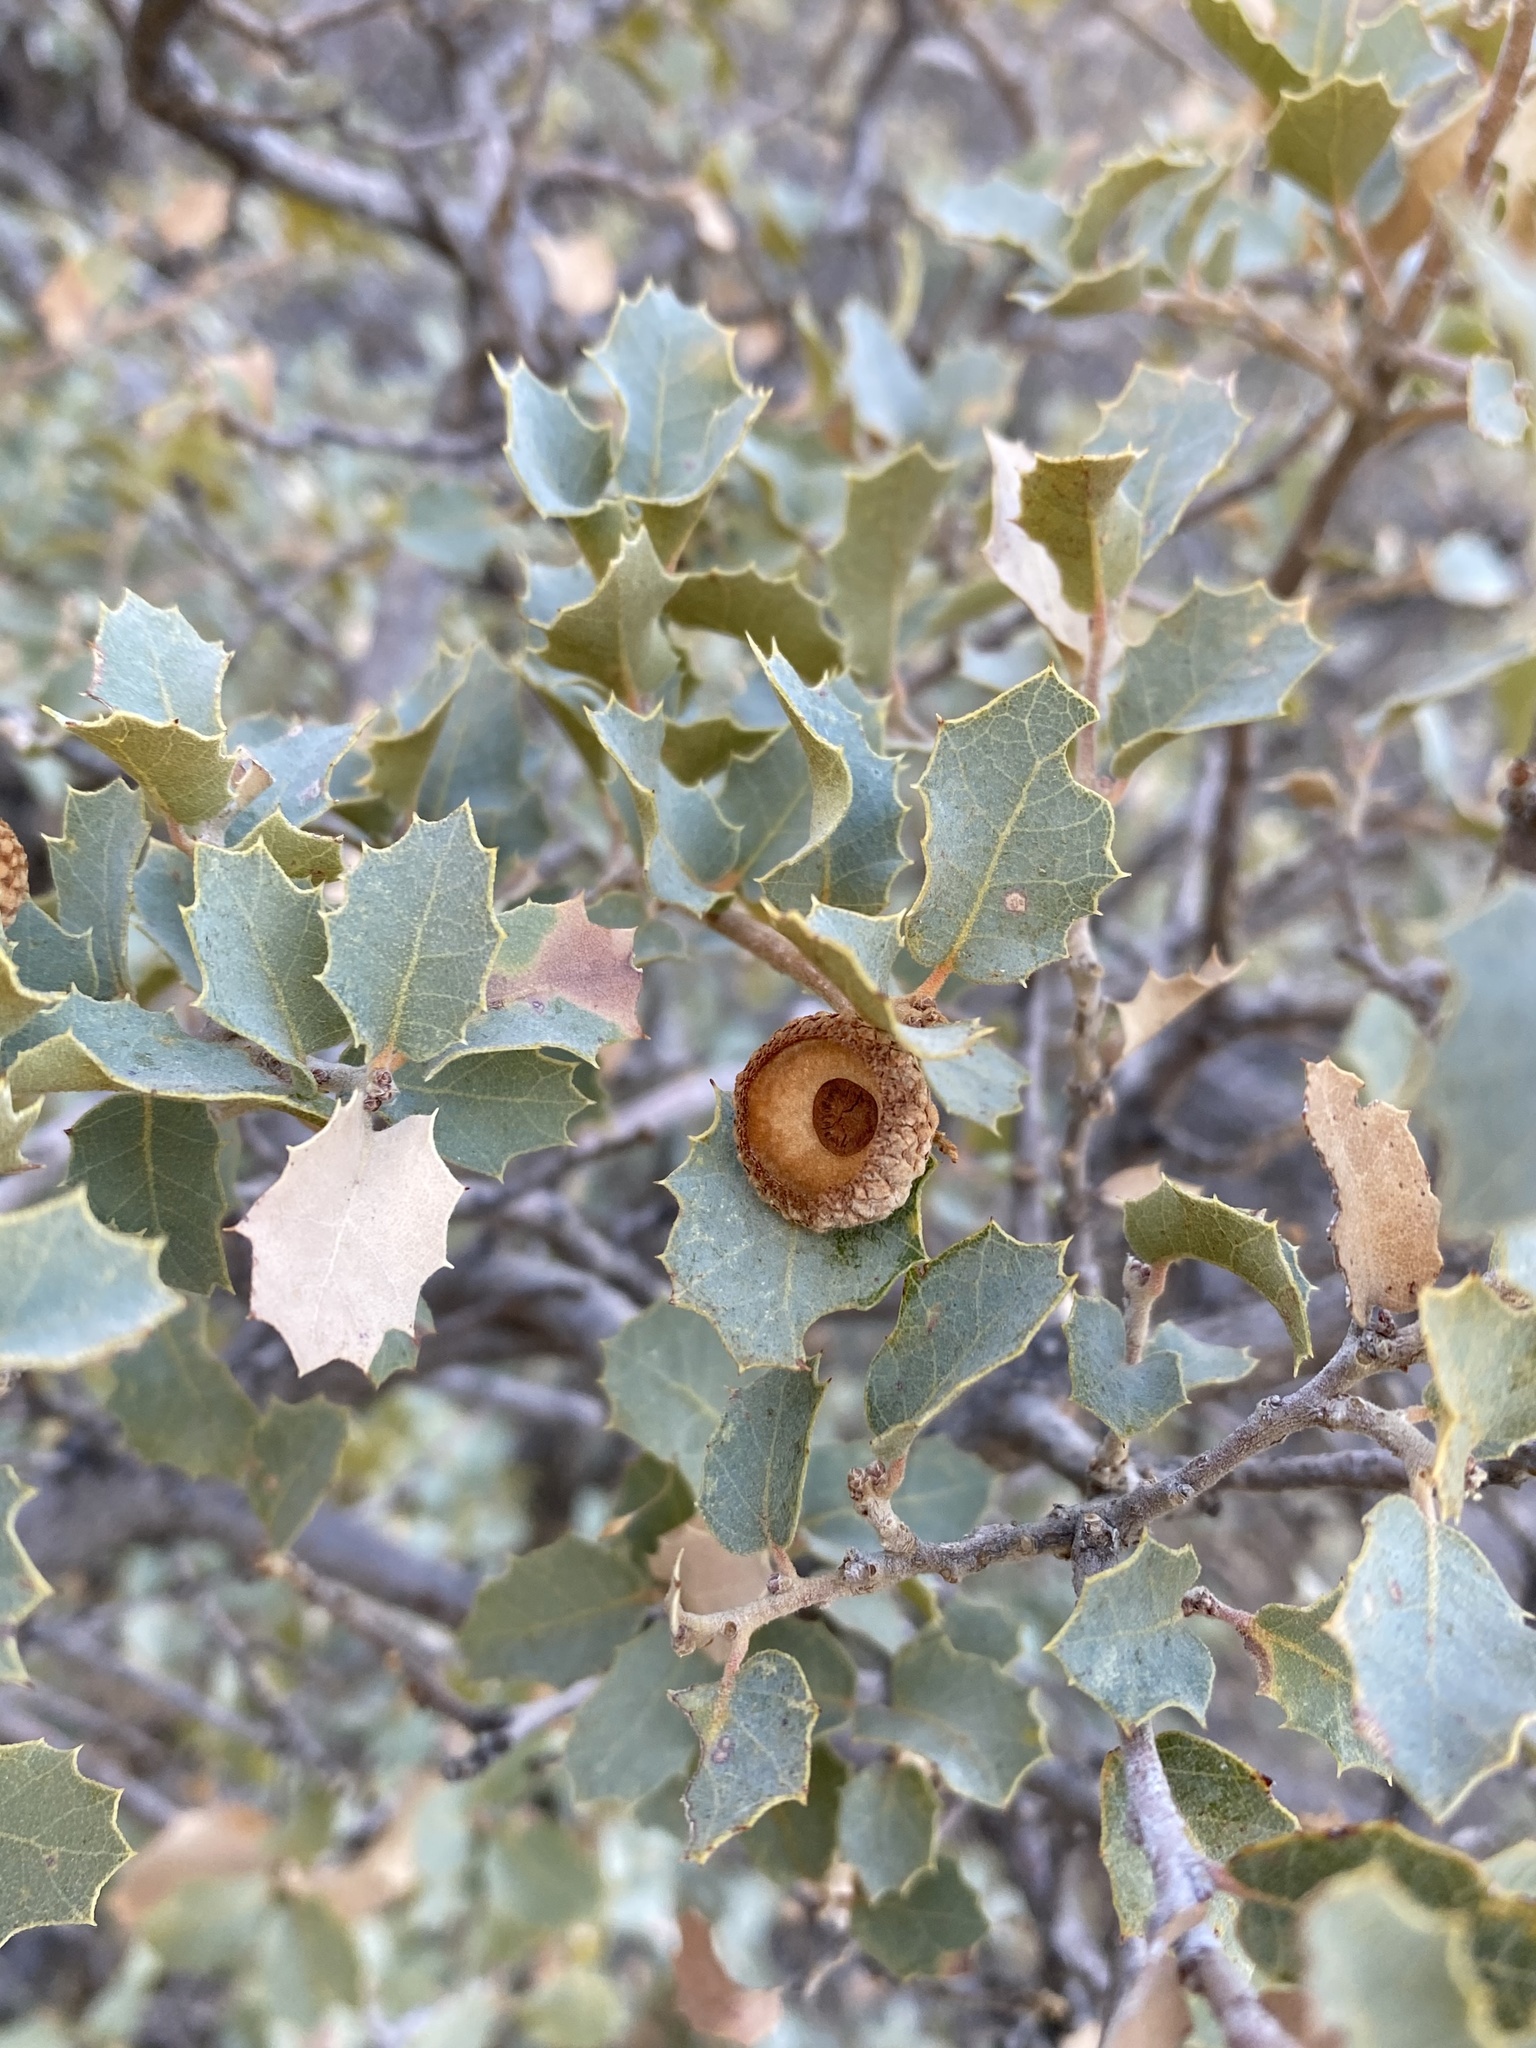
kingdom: Plantae
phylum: Tracheophyta
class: Magnoliopsida
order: Fagales
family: Fagaceae
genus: Quercus
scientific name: Quercus turbinella
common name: Sonoran scrub oak
